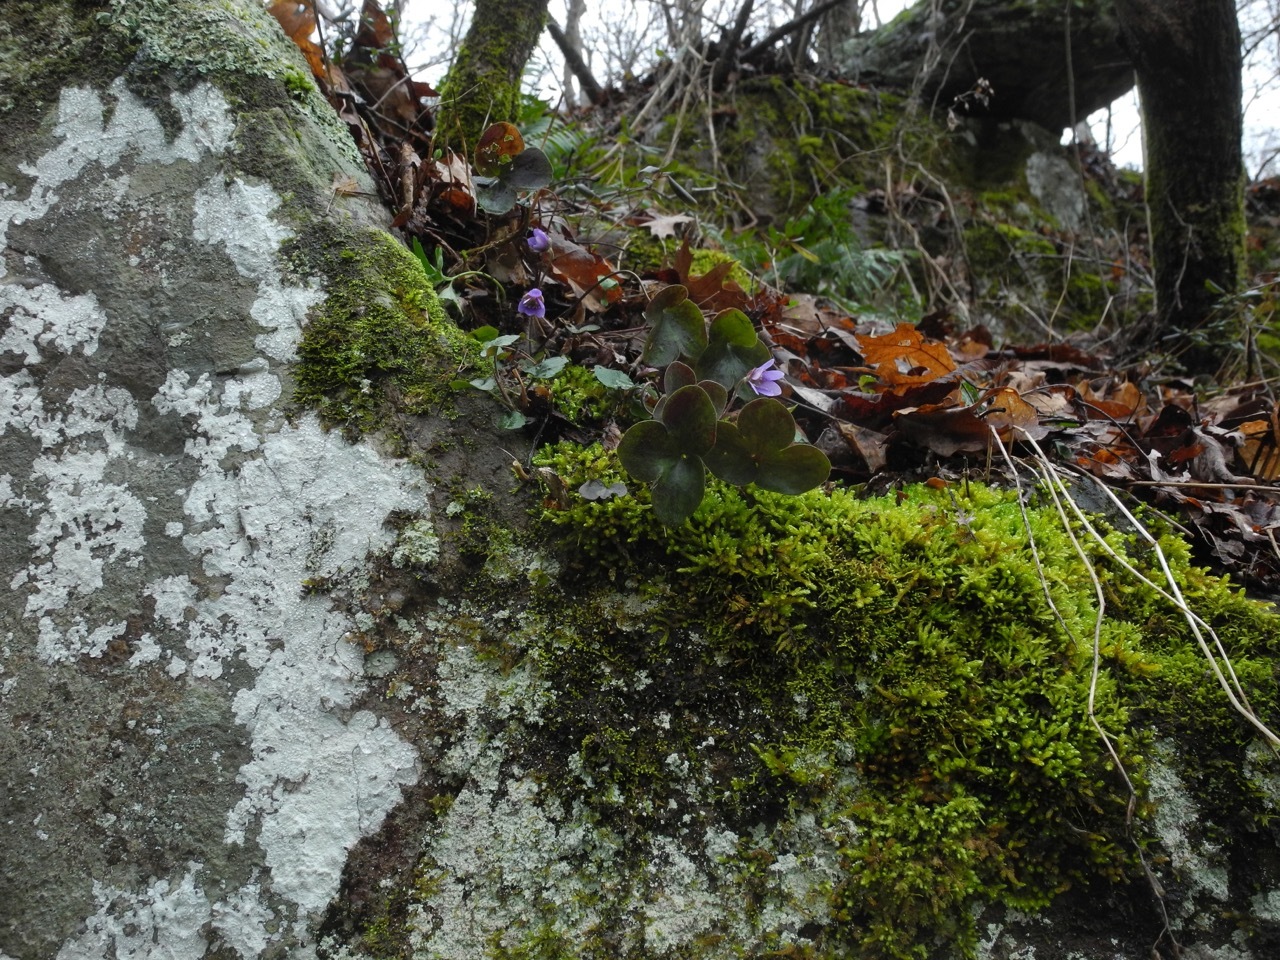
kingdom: Plantae
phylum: Tracheophyta
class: Magnoliopsida
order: Ranunculales
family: Ranunculaceae
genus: Hepatica
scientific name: Hepatica americana
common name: American hepatica
